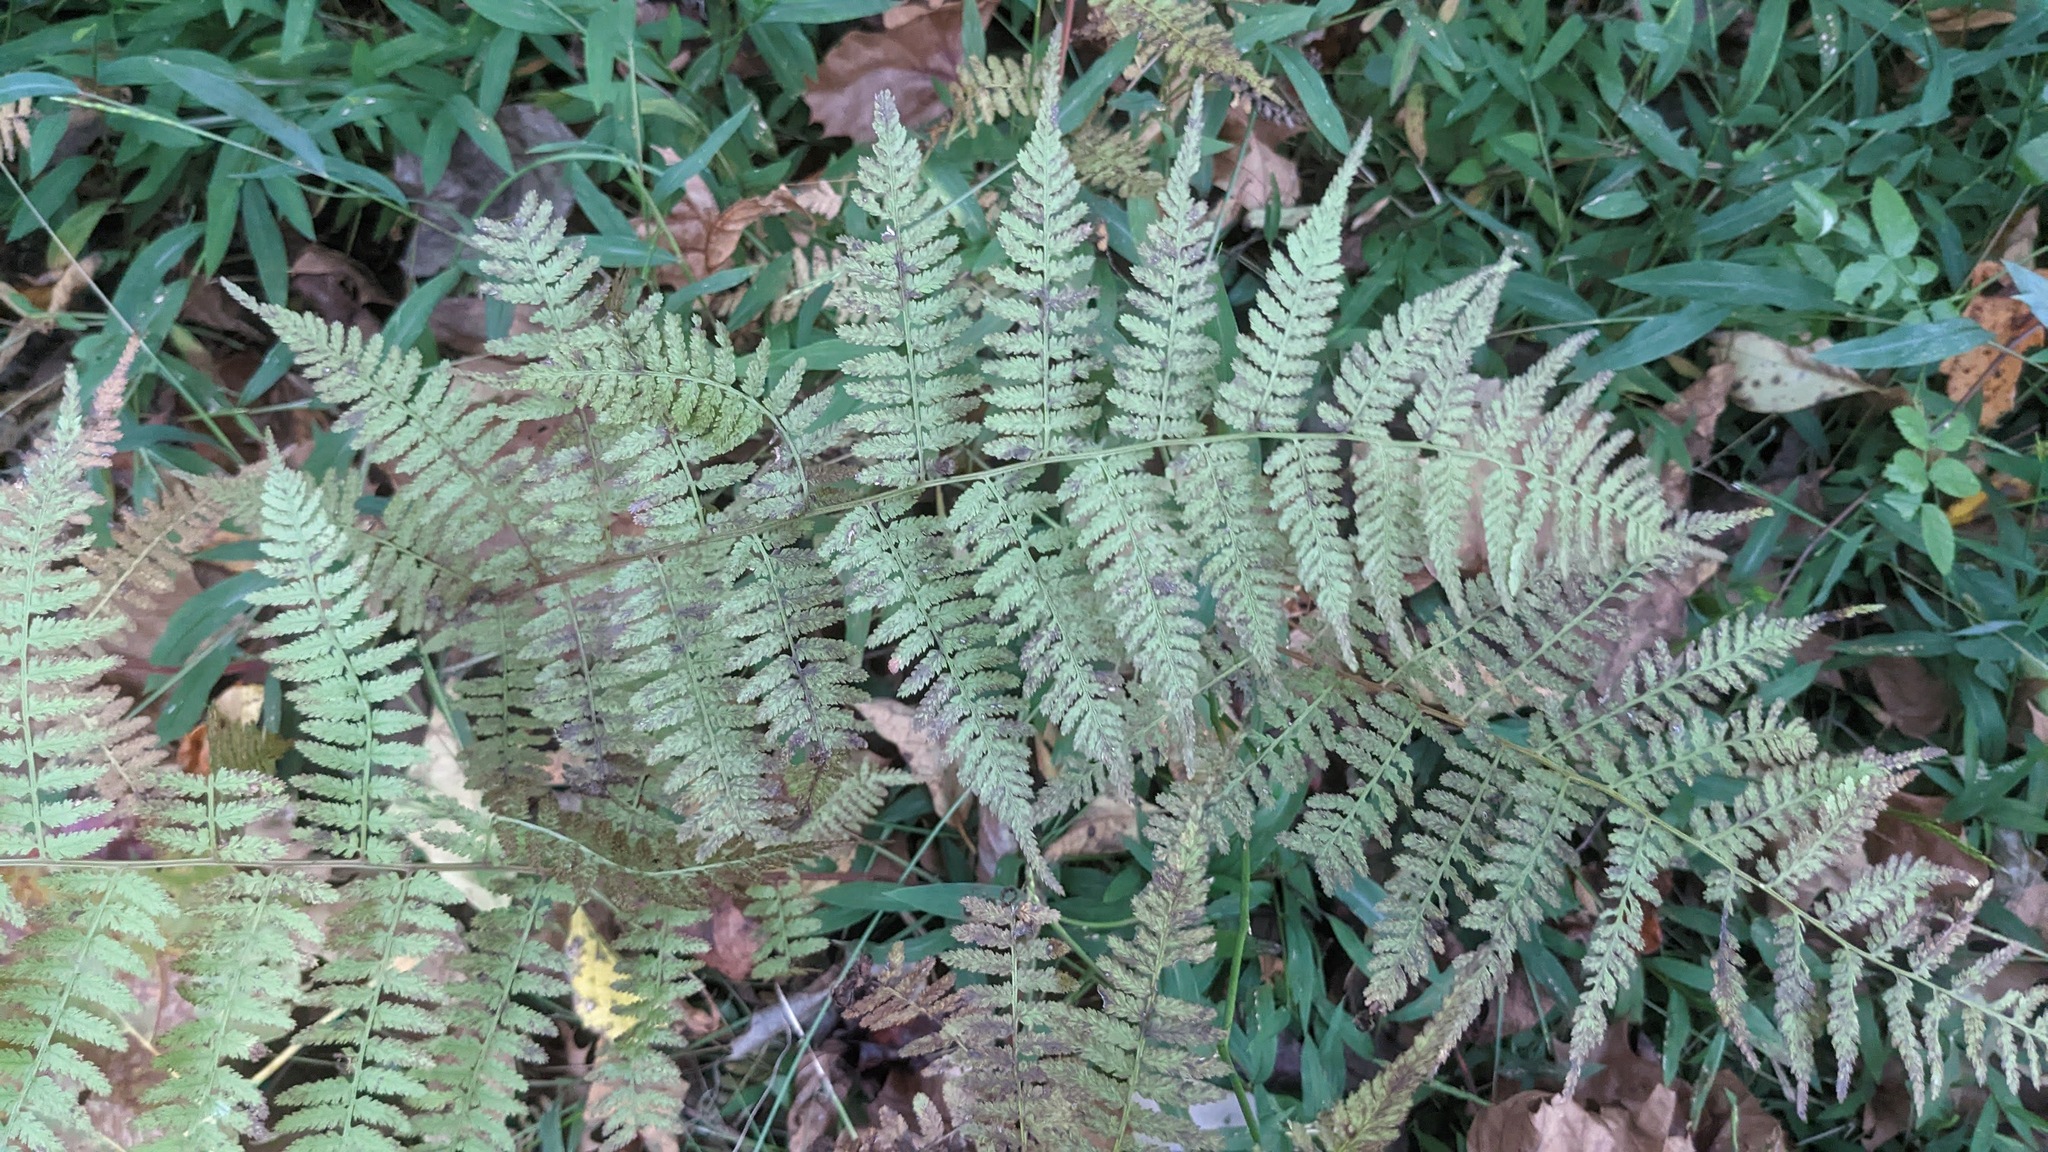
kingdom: Plantae
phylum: Tracheophyta
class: Polypodiopsida
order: Polypodiales
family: Athyriaceae
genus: Athyrium
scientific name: Athyrium asplenioides
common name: Southern lady fern
